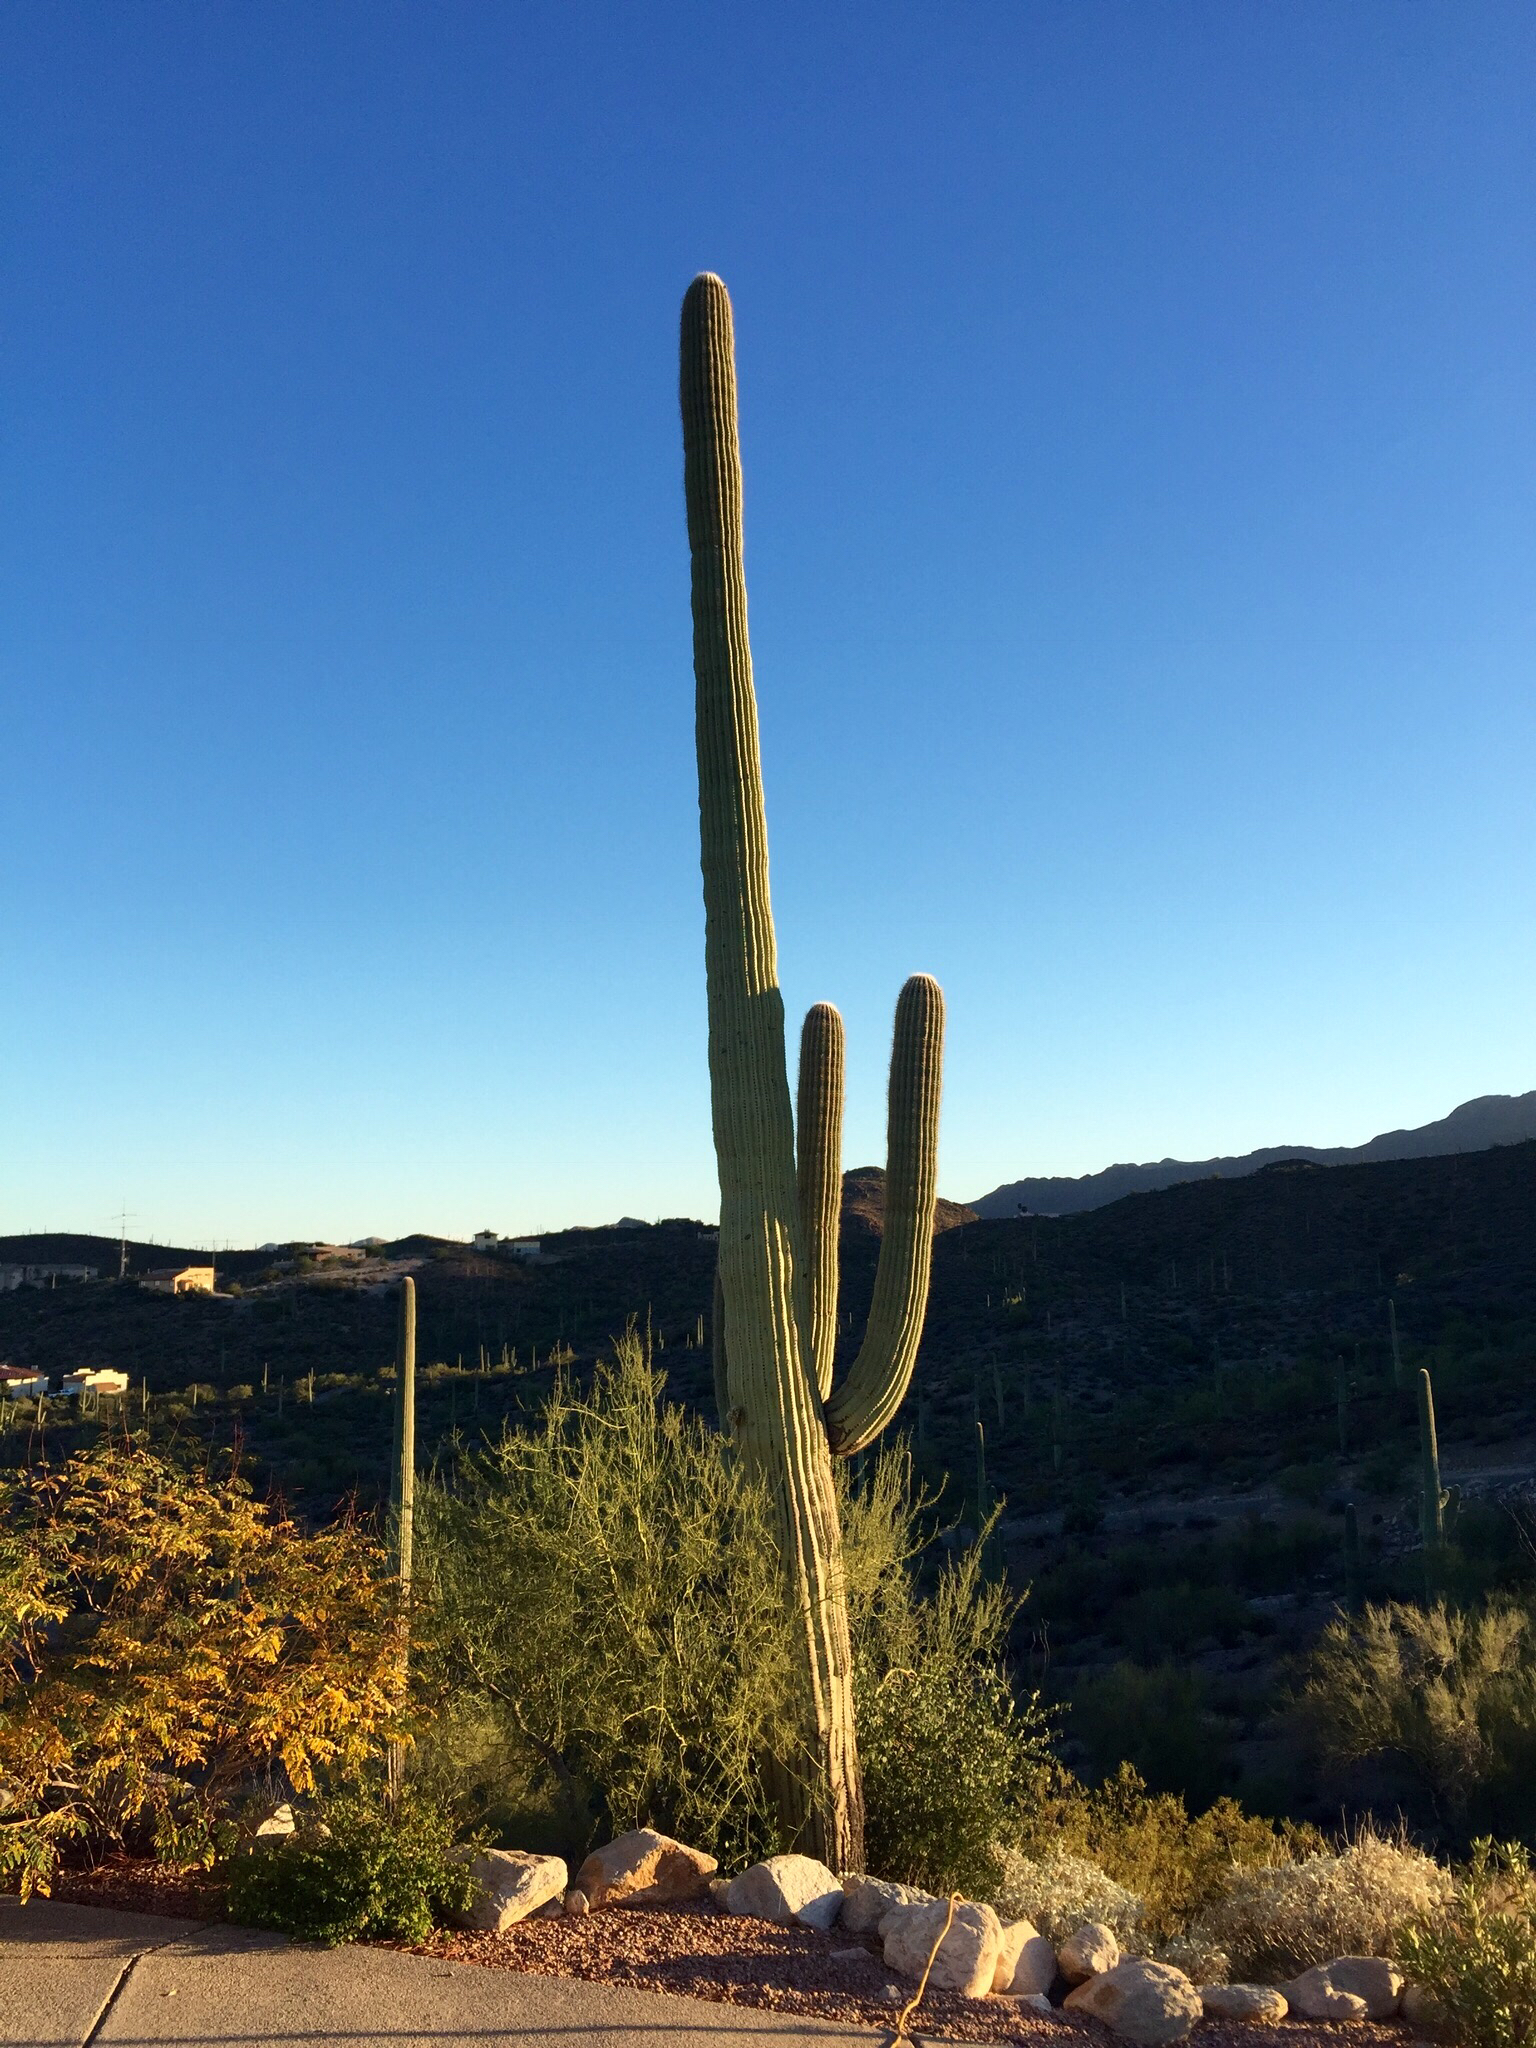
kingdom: Plantae
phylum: Tracheophyta
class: Magnoliopsida
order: Caryophyllales
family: Cactaceae
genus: Carnegiea
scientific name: Carnegiea gigantea
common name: Saguaro
